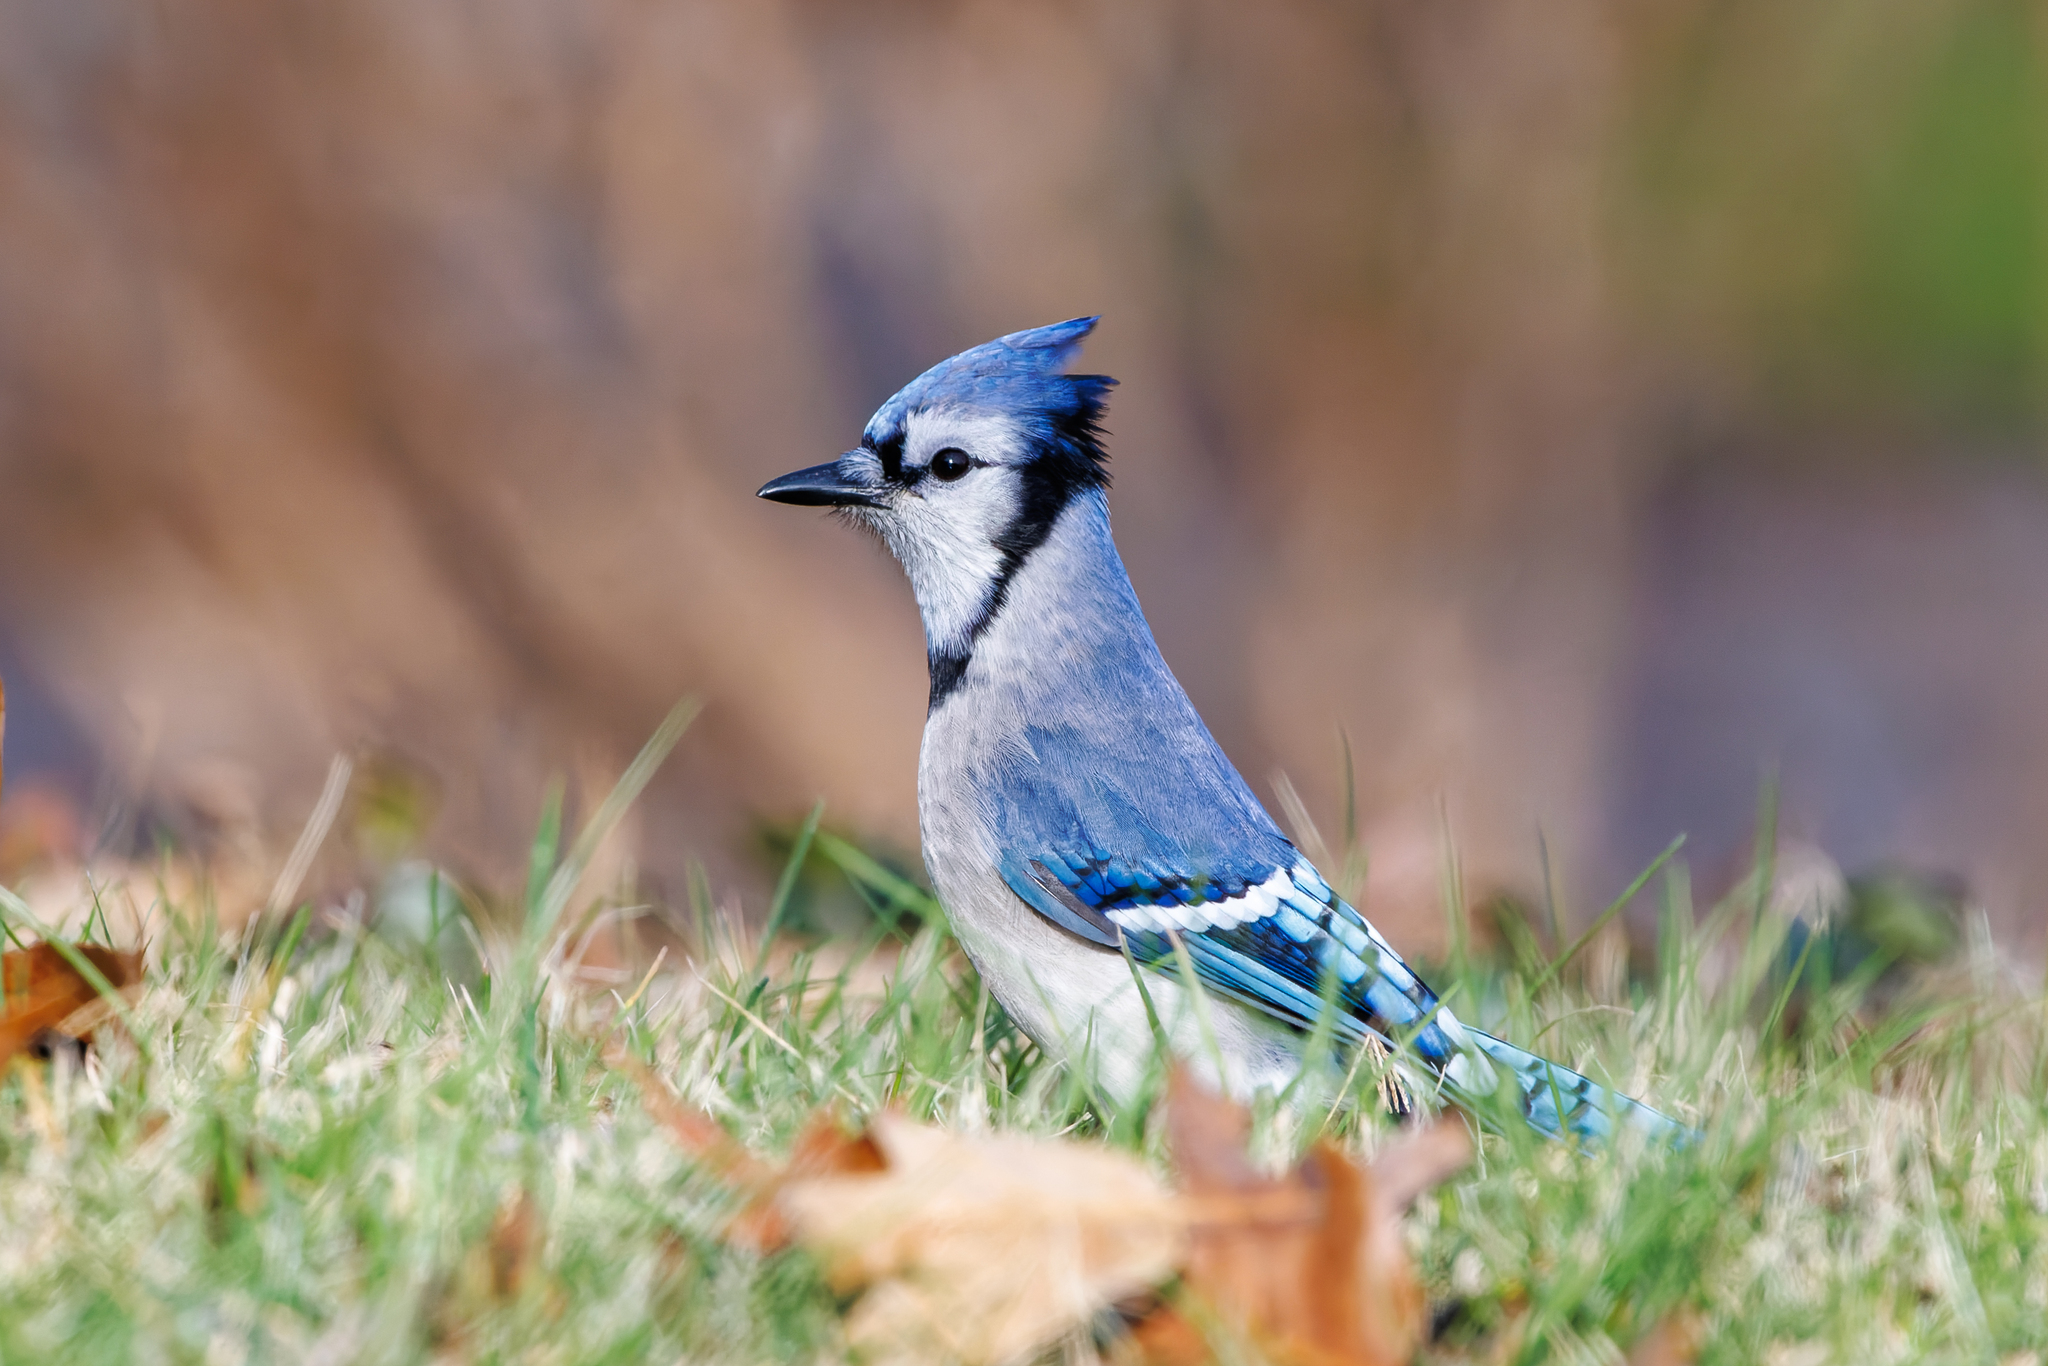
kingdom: Animalia
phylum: Chordata
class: Aves
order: Passeriformes
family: Corvidae
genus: Cyanocitta
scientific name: Cyanocitta cristata
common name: Blue jay
